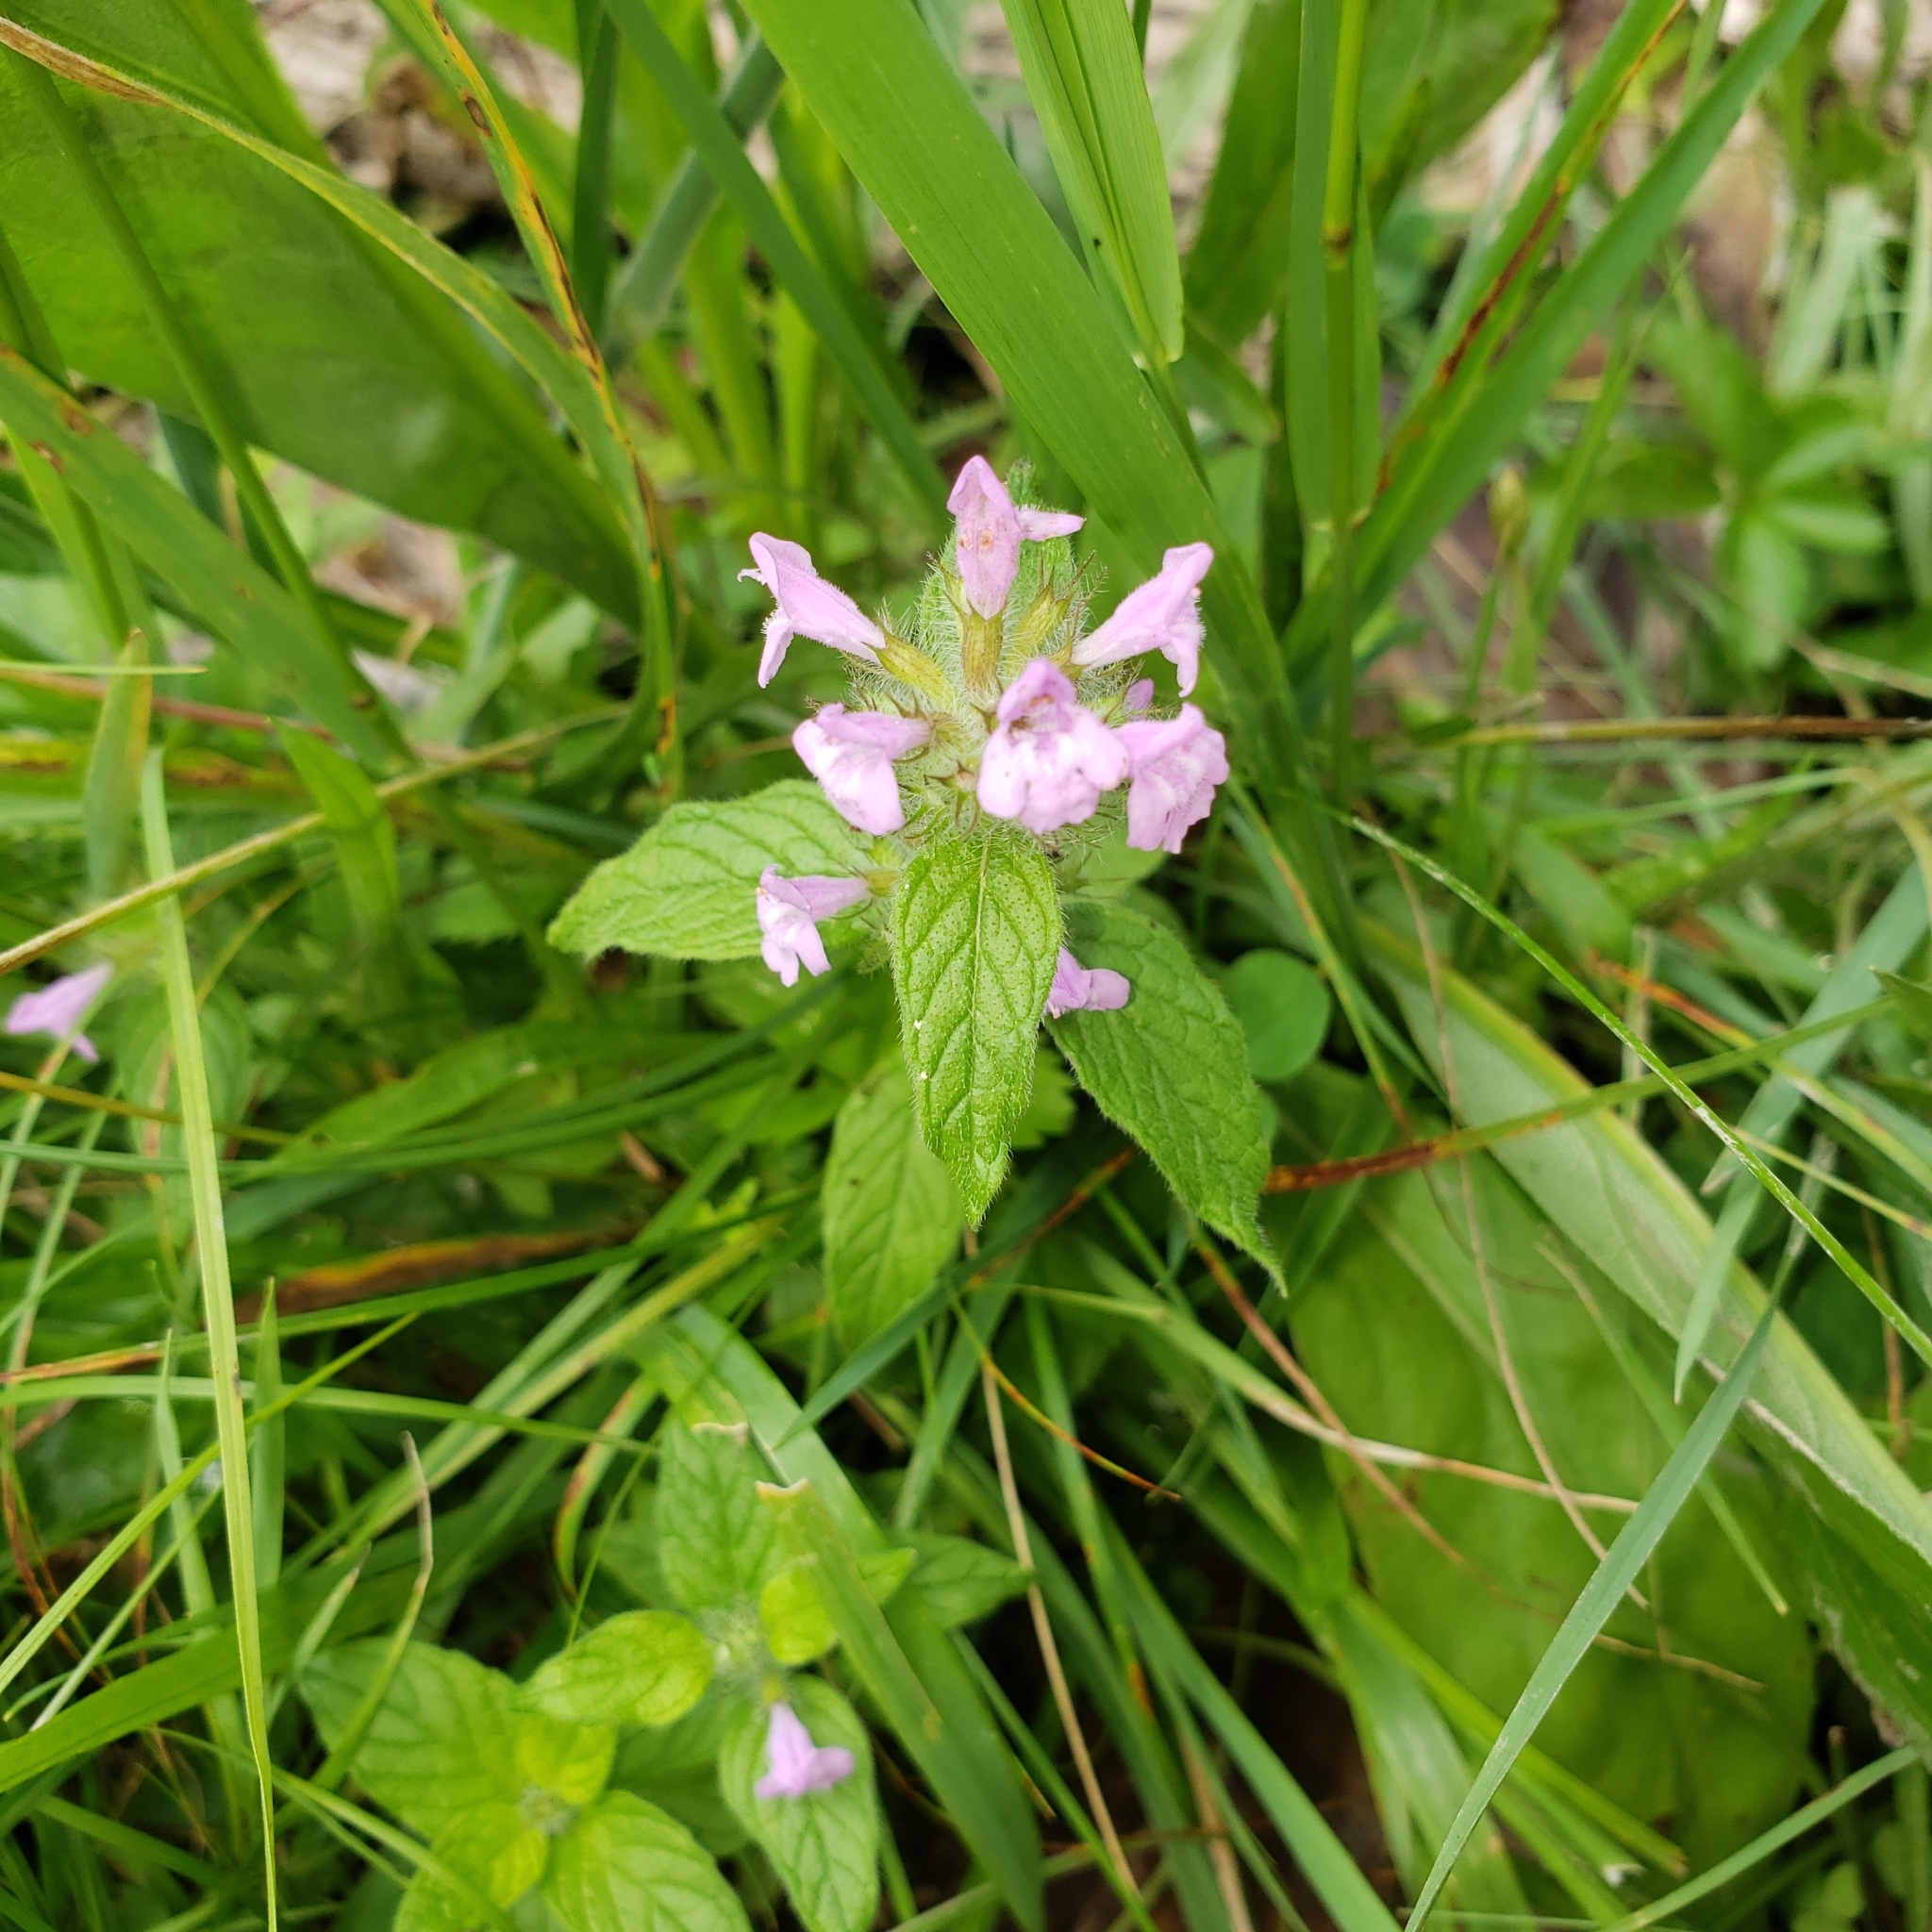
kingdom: Plantae
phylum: Tracheophyta
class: Magnoliopsida
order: Lamiales
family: Lamiaceae
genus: Clinopodium
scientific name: Clinopodium vulgare
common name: Wild basil
